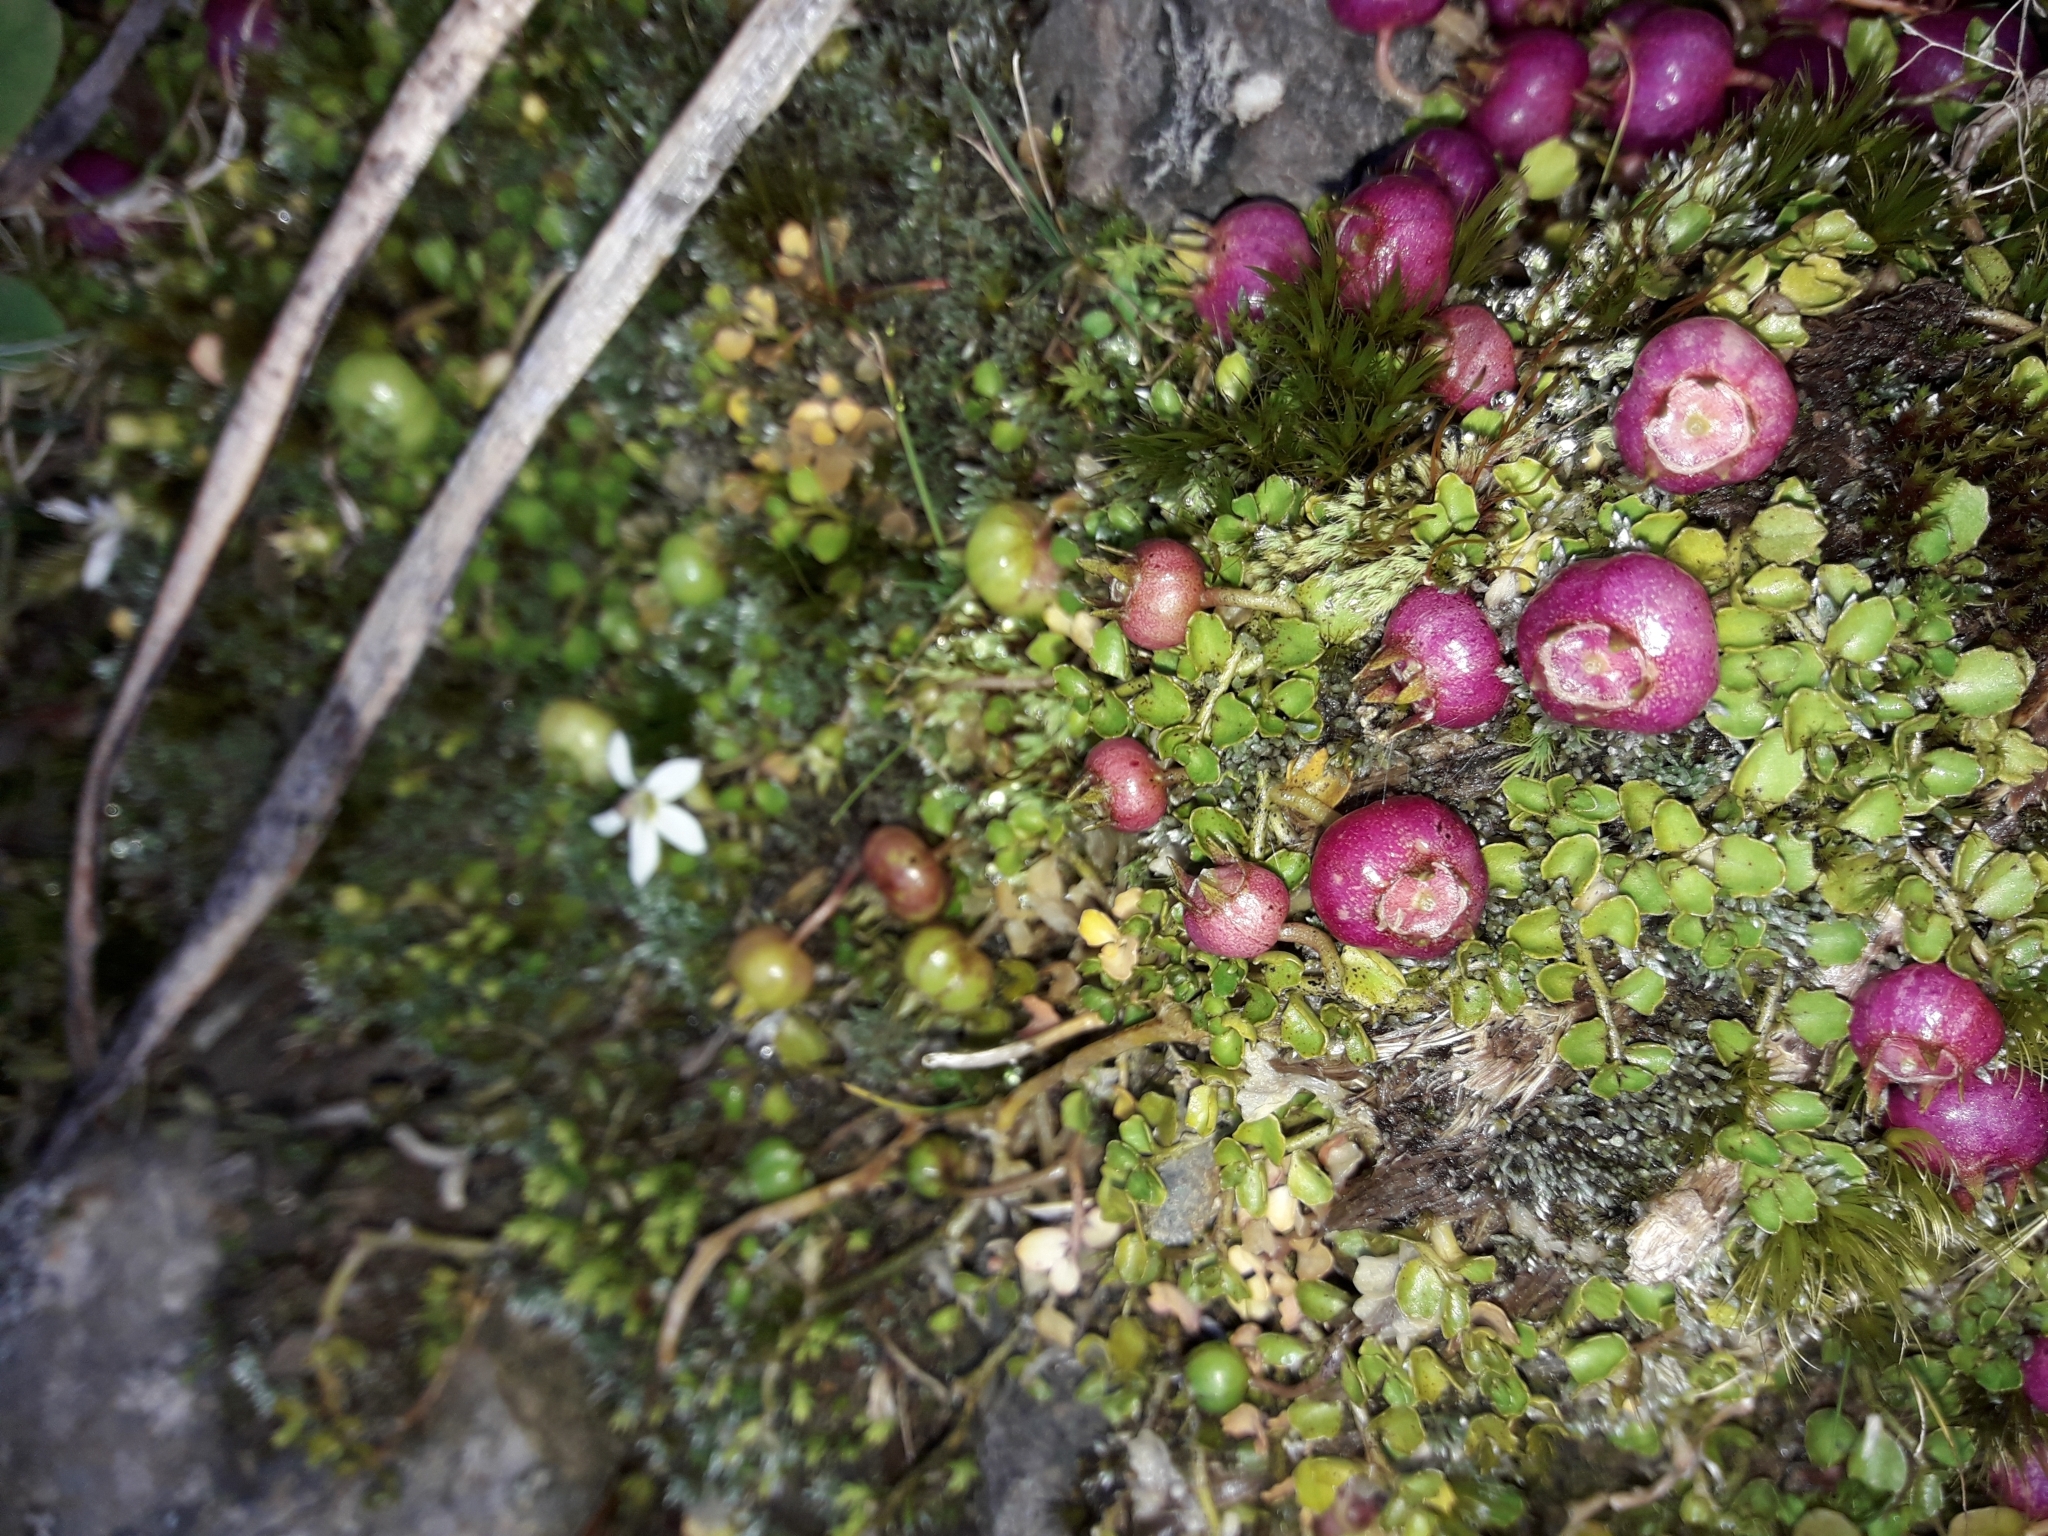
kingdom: Plantae
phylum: Tracheophyta
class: Magnoliopsida
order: Asterales
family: Campanulaceae
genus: Lobelia
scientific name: Lobelia angulata
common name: Lawn lobelia
